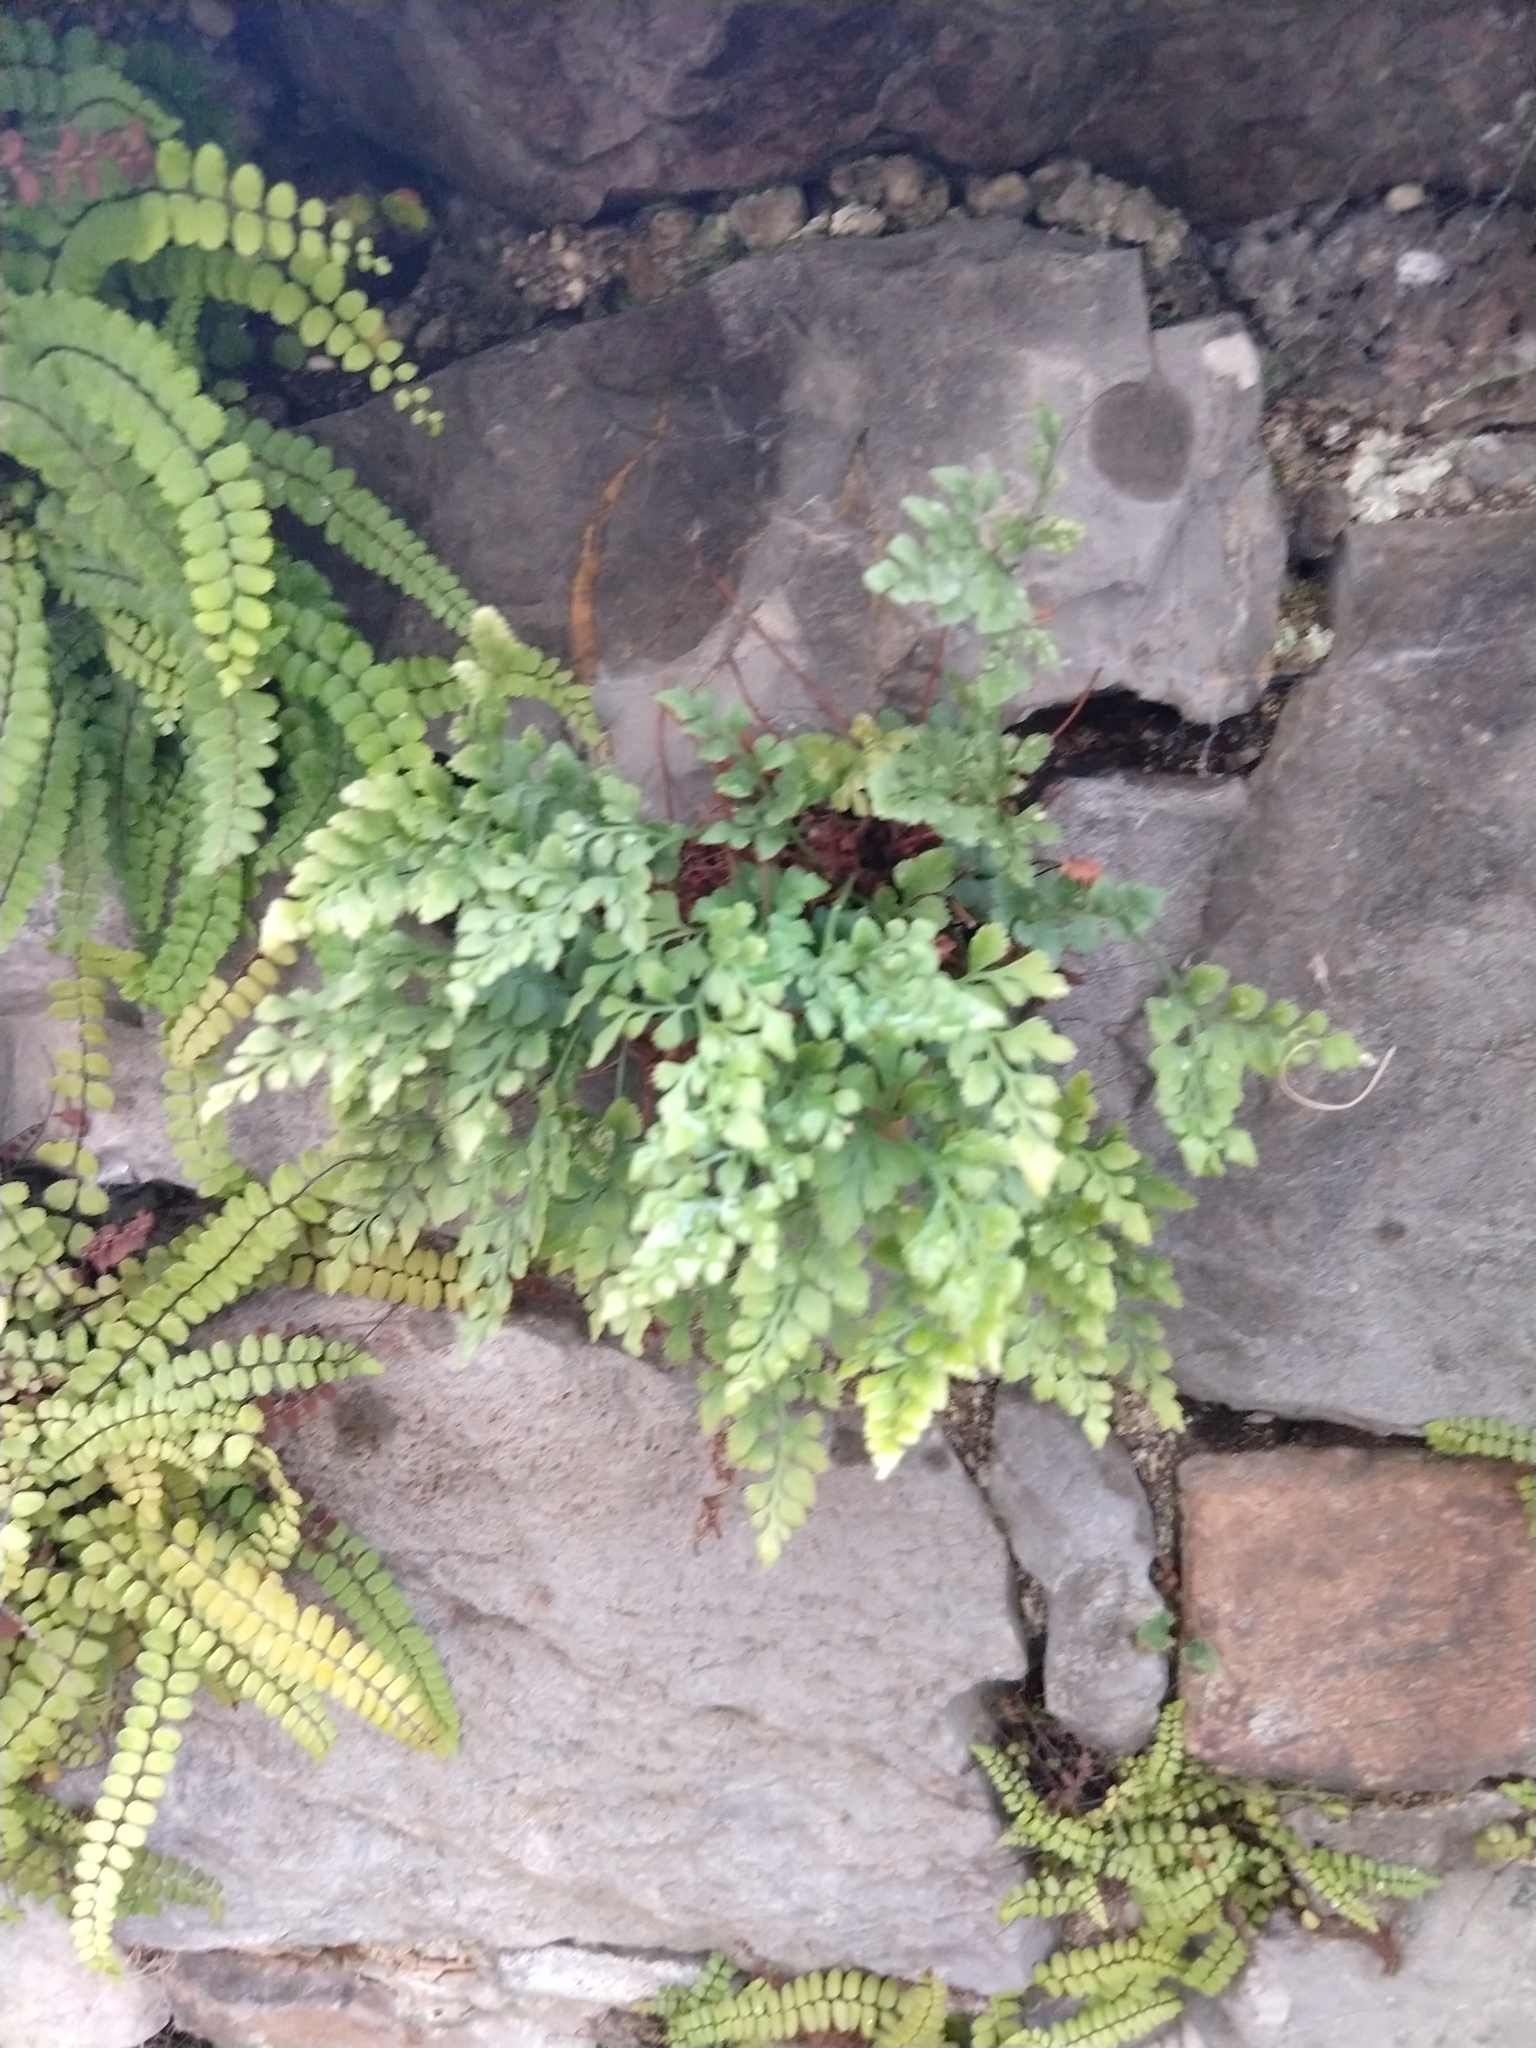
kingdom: Plantae
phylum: Tracheophyta
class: Polypodiopsida
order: Polypodiales
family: Aspleniaceae
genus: Asplenium
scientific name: Asplenium ruta-muraria
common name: Wall-rue
